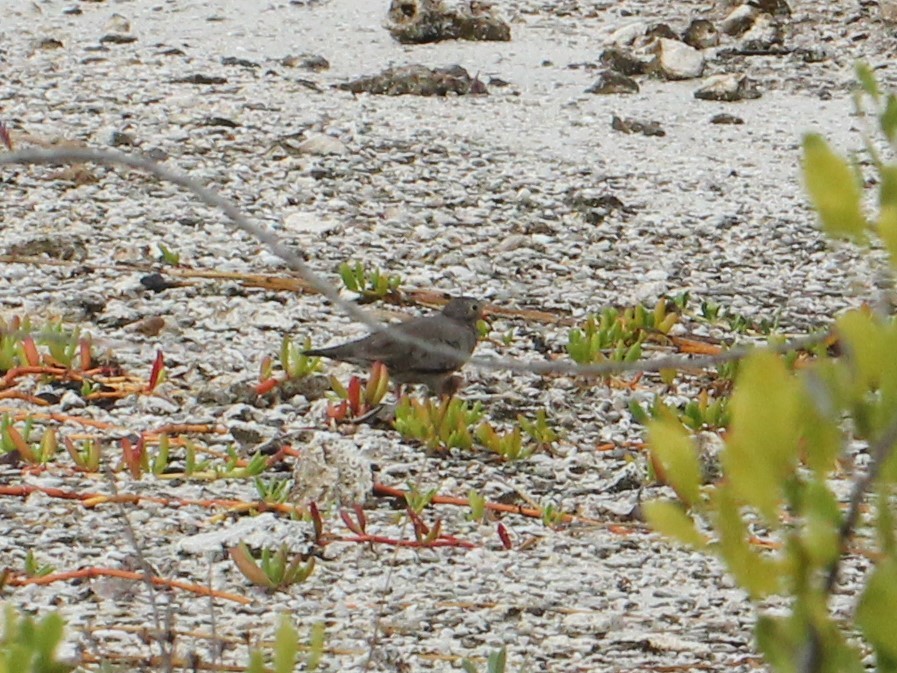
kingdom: Animalia
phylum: Chordata
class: Aves
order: Columbiformes
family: Columbidae
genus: Columbina
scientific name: Columbina passerina
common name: Common ground-dove
